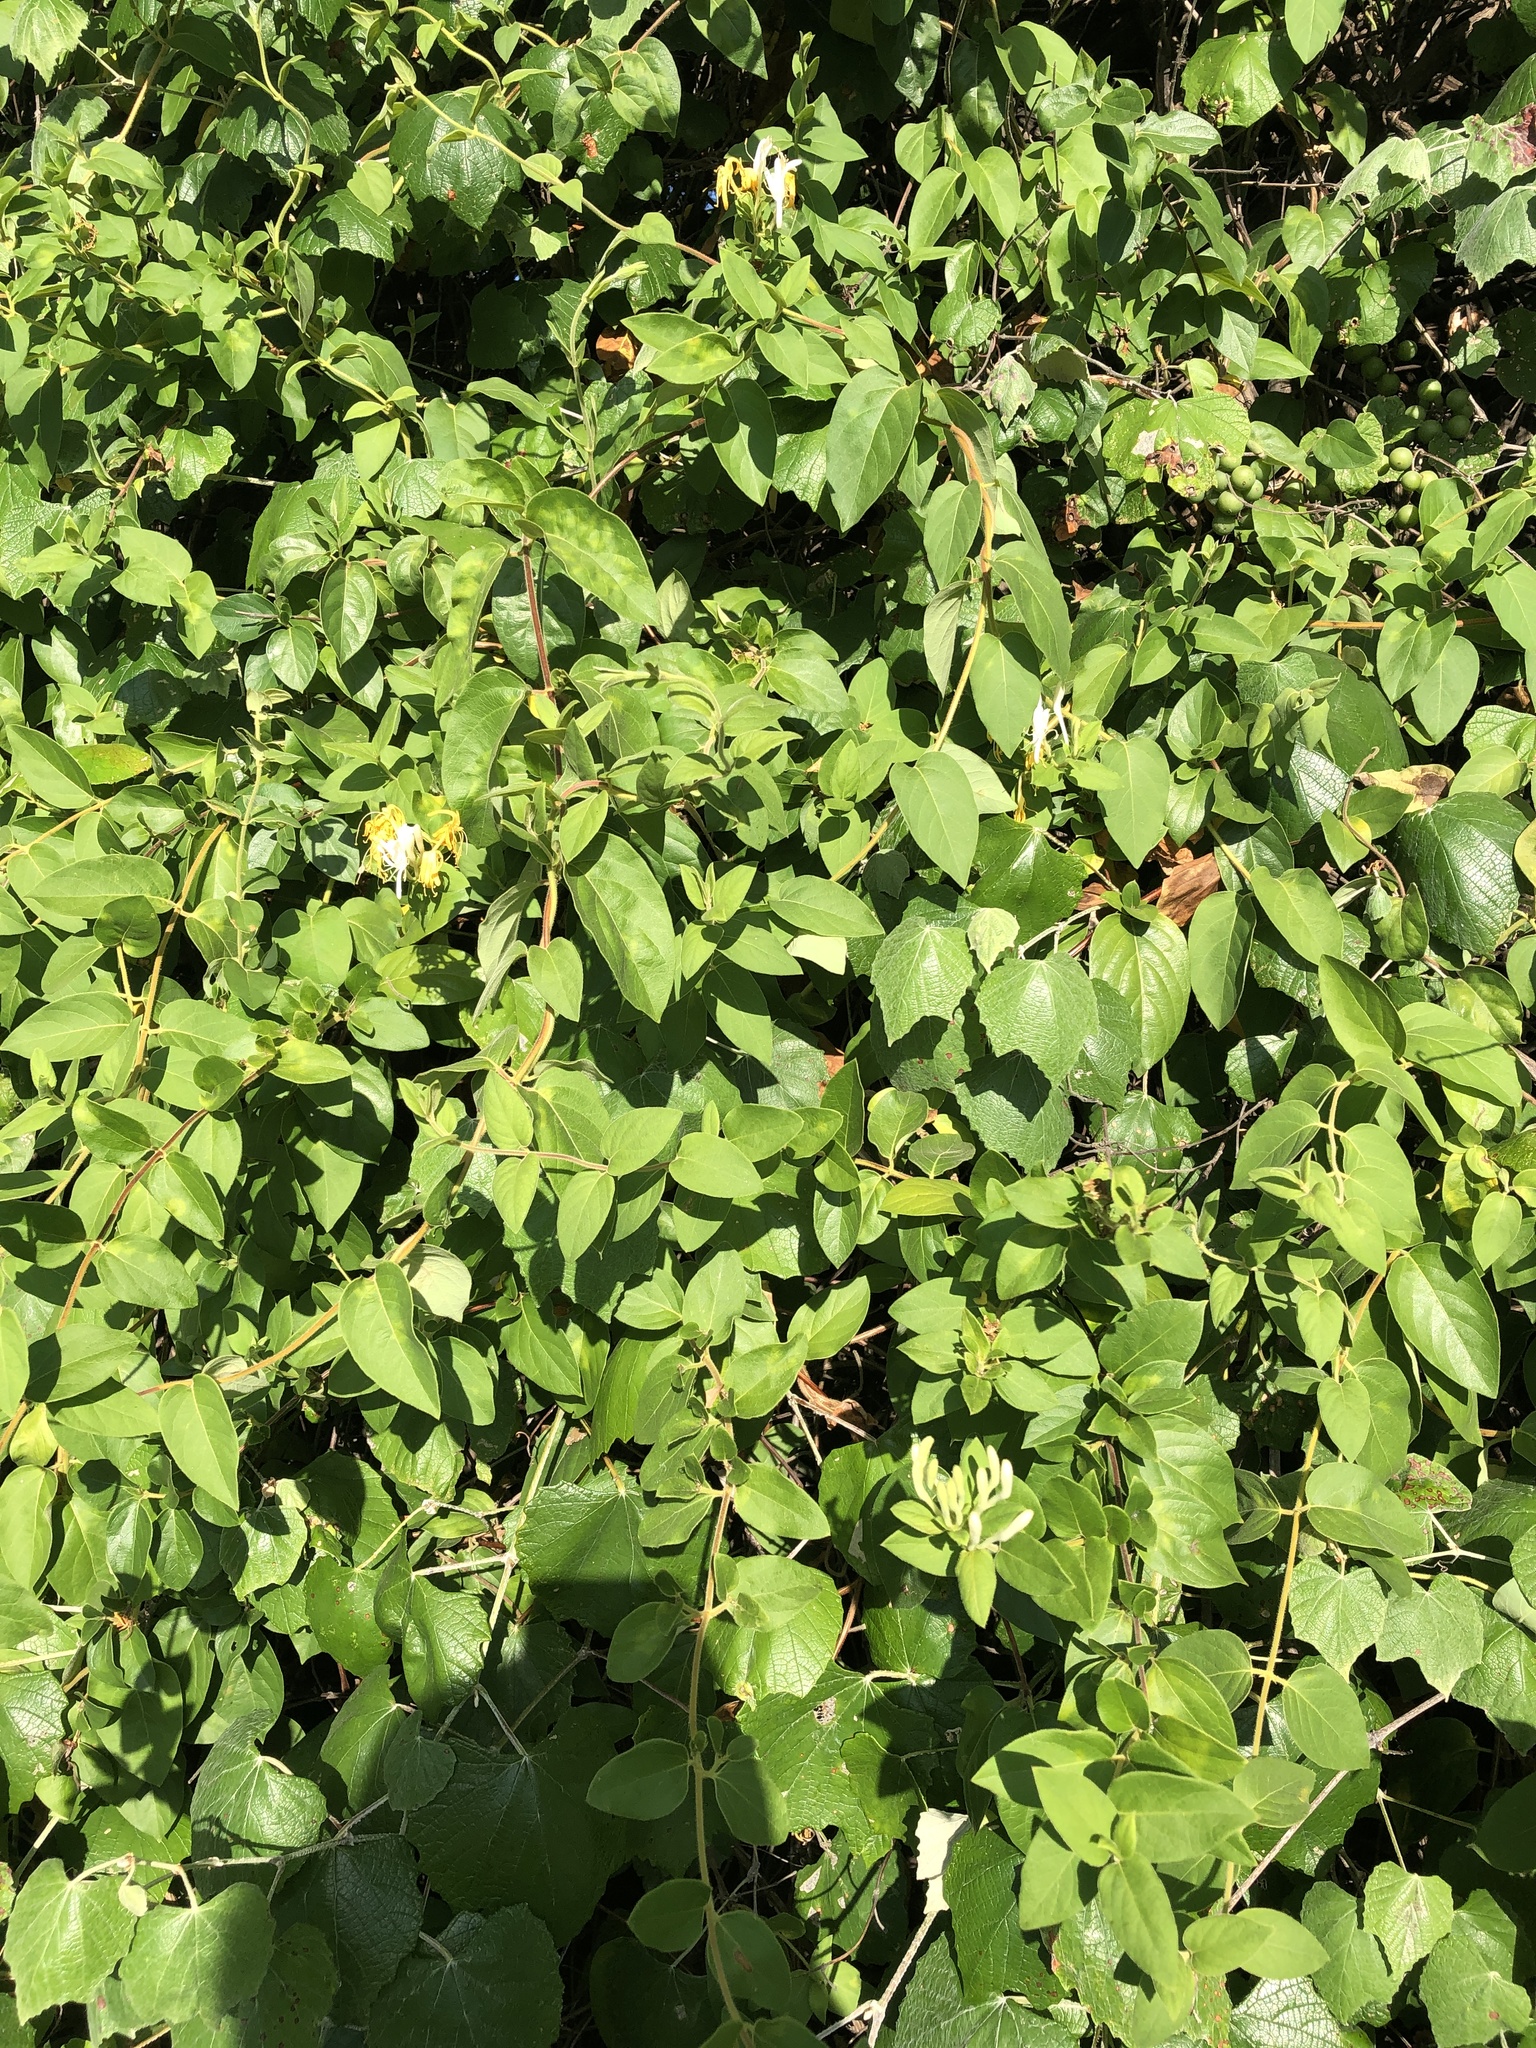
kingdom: Plantae
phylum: Tracheophyta
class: Magnoliopsida
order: Dipsacales
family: Caprifoliaceae
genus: Lonicera
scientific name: Lonicera japonica
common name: Japanese honeysuckle
